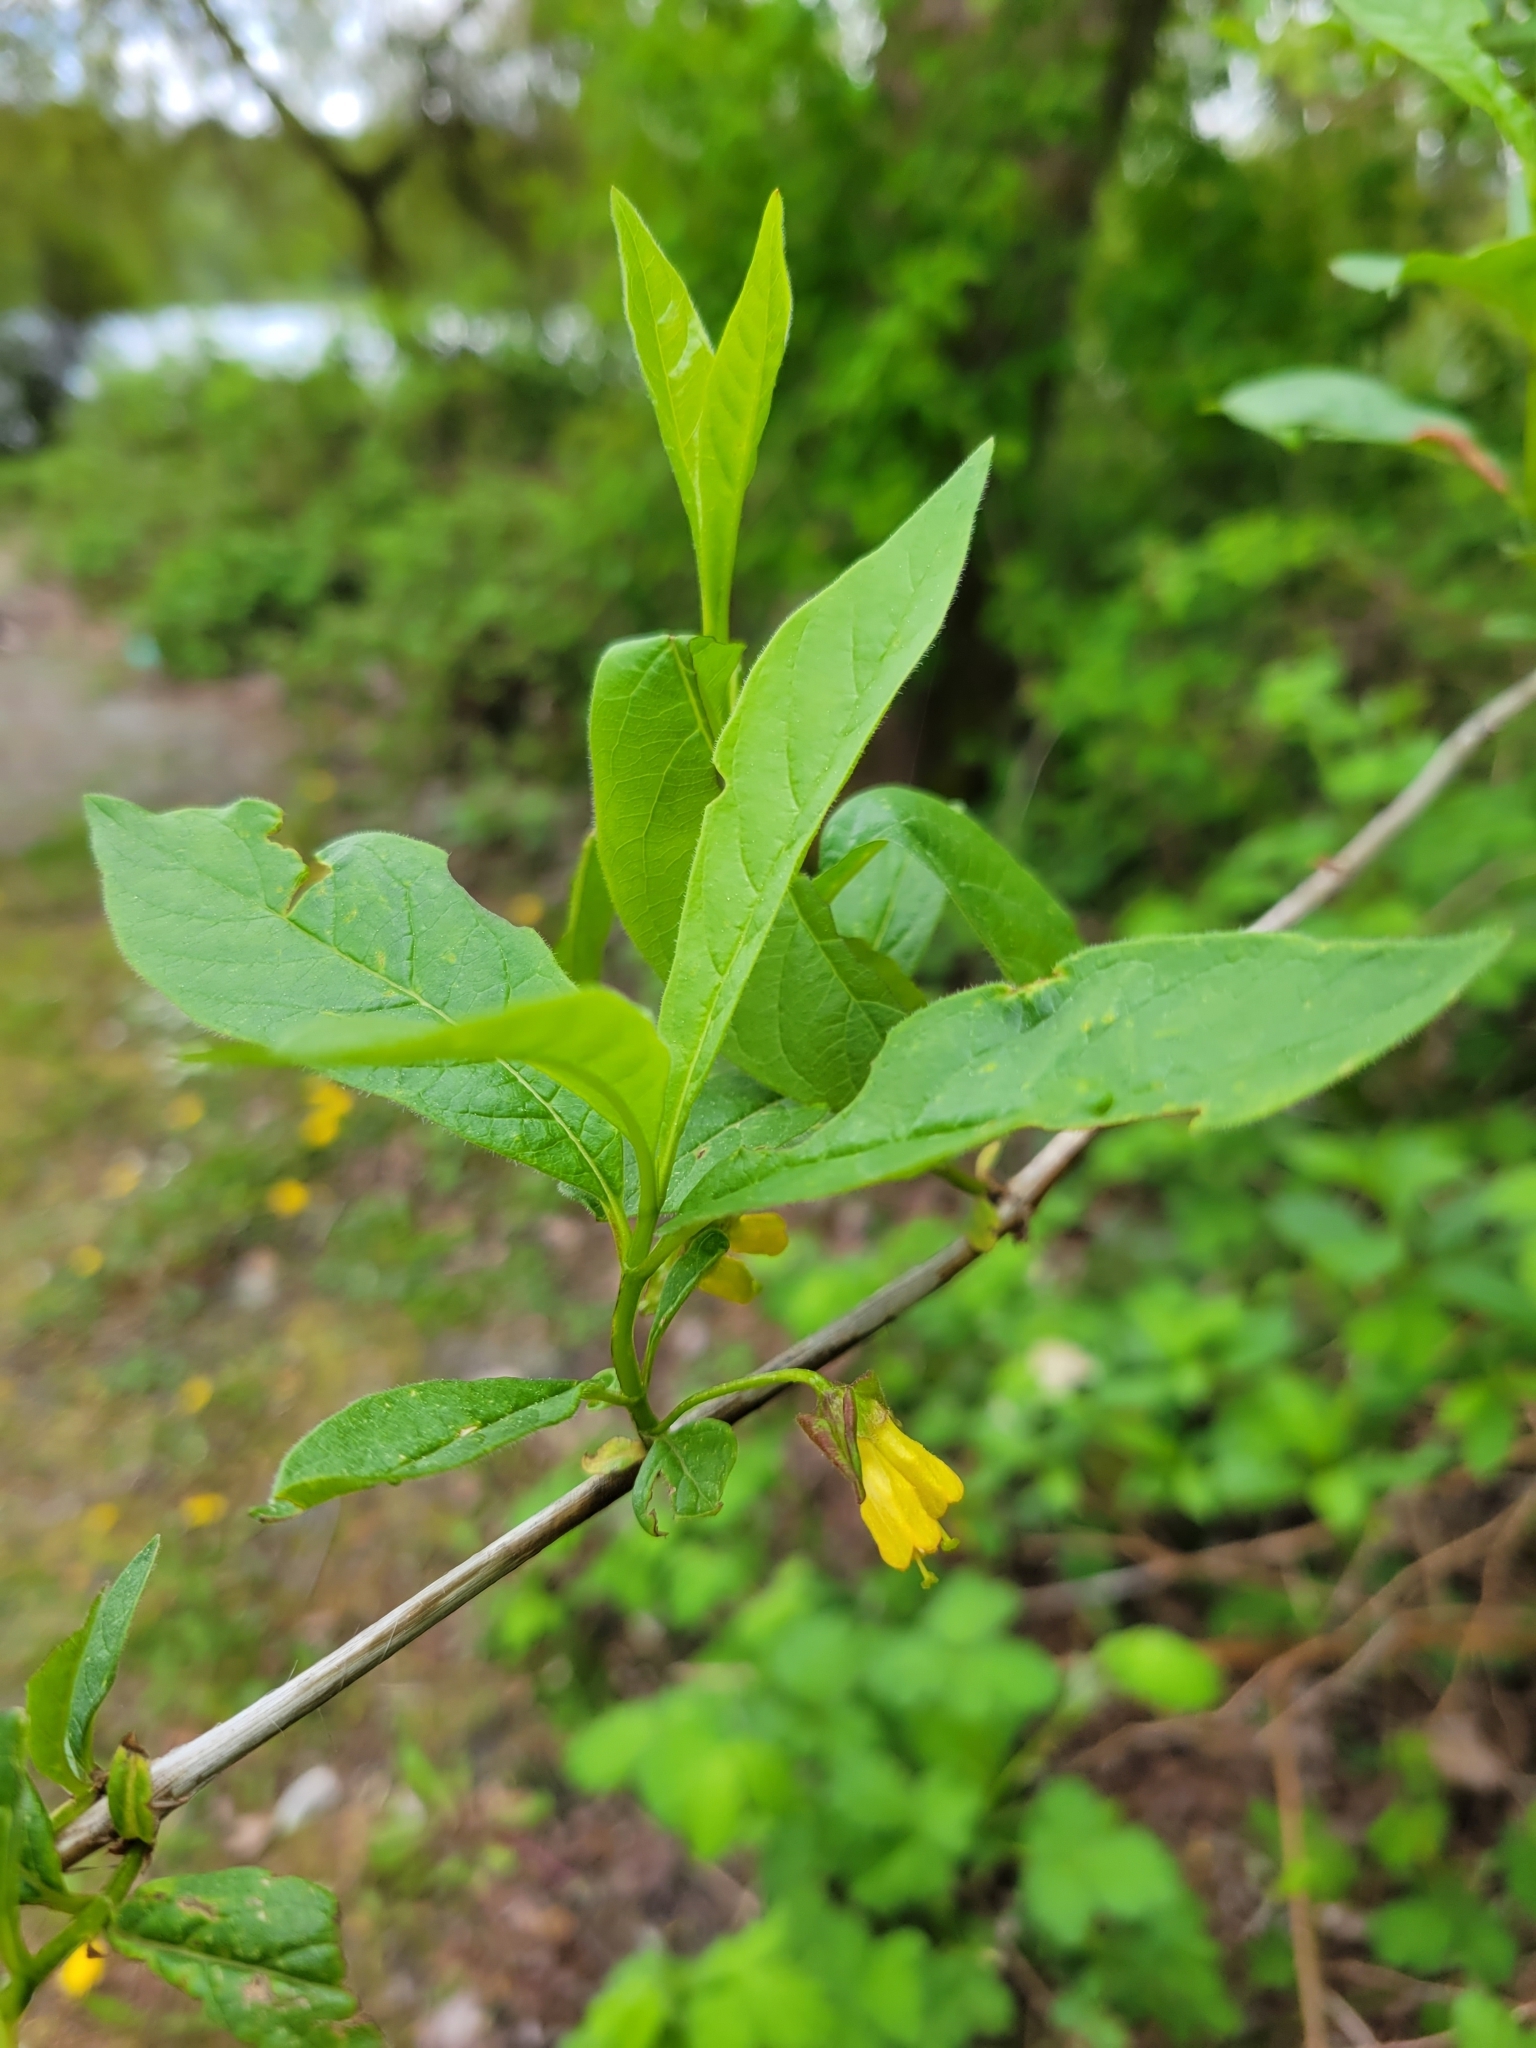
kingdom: Plantae
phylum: Tracheophyta
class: Magnoliopsida
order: Dipsacales
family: Caprifoliaceae
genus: Lonicera
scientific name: Lonicera involucrata
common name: Californian honeysuckle
